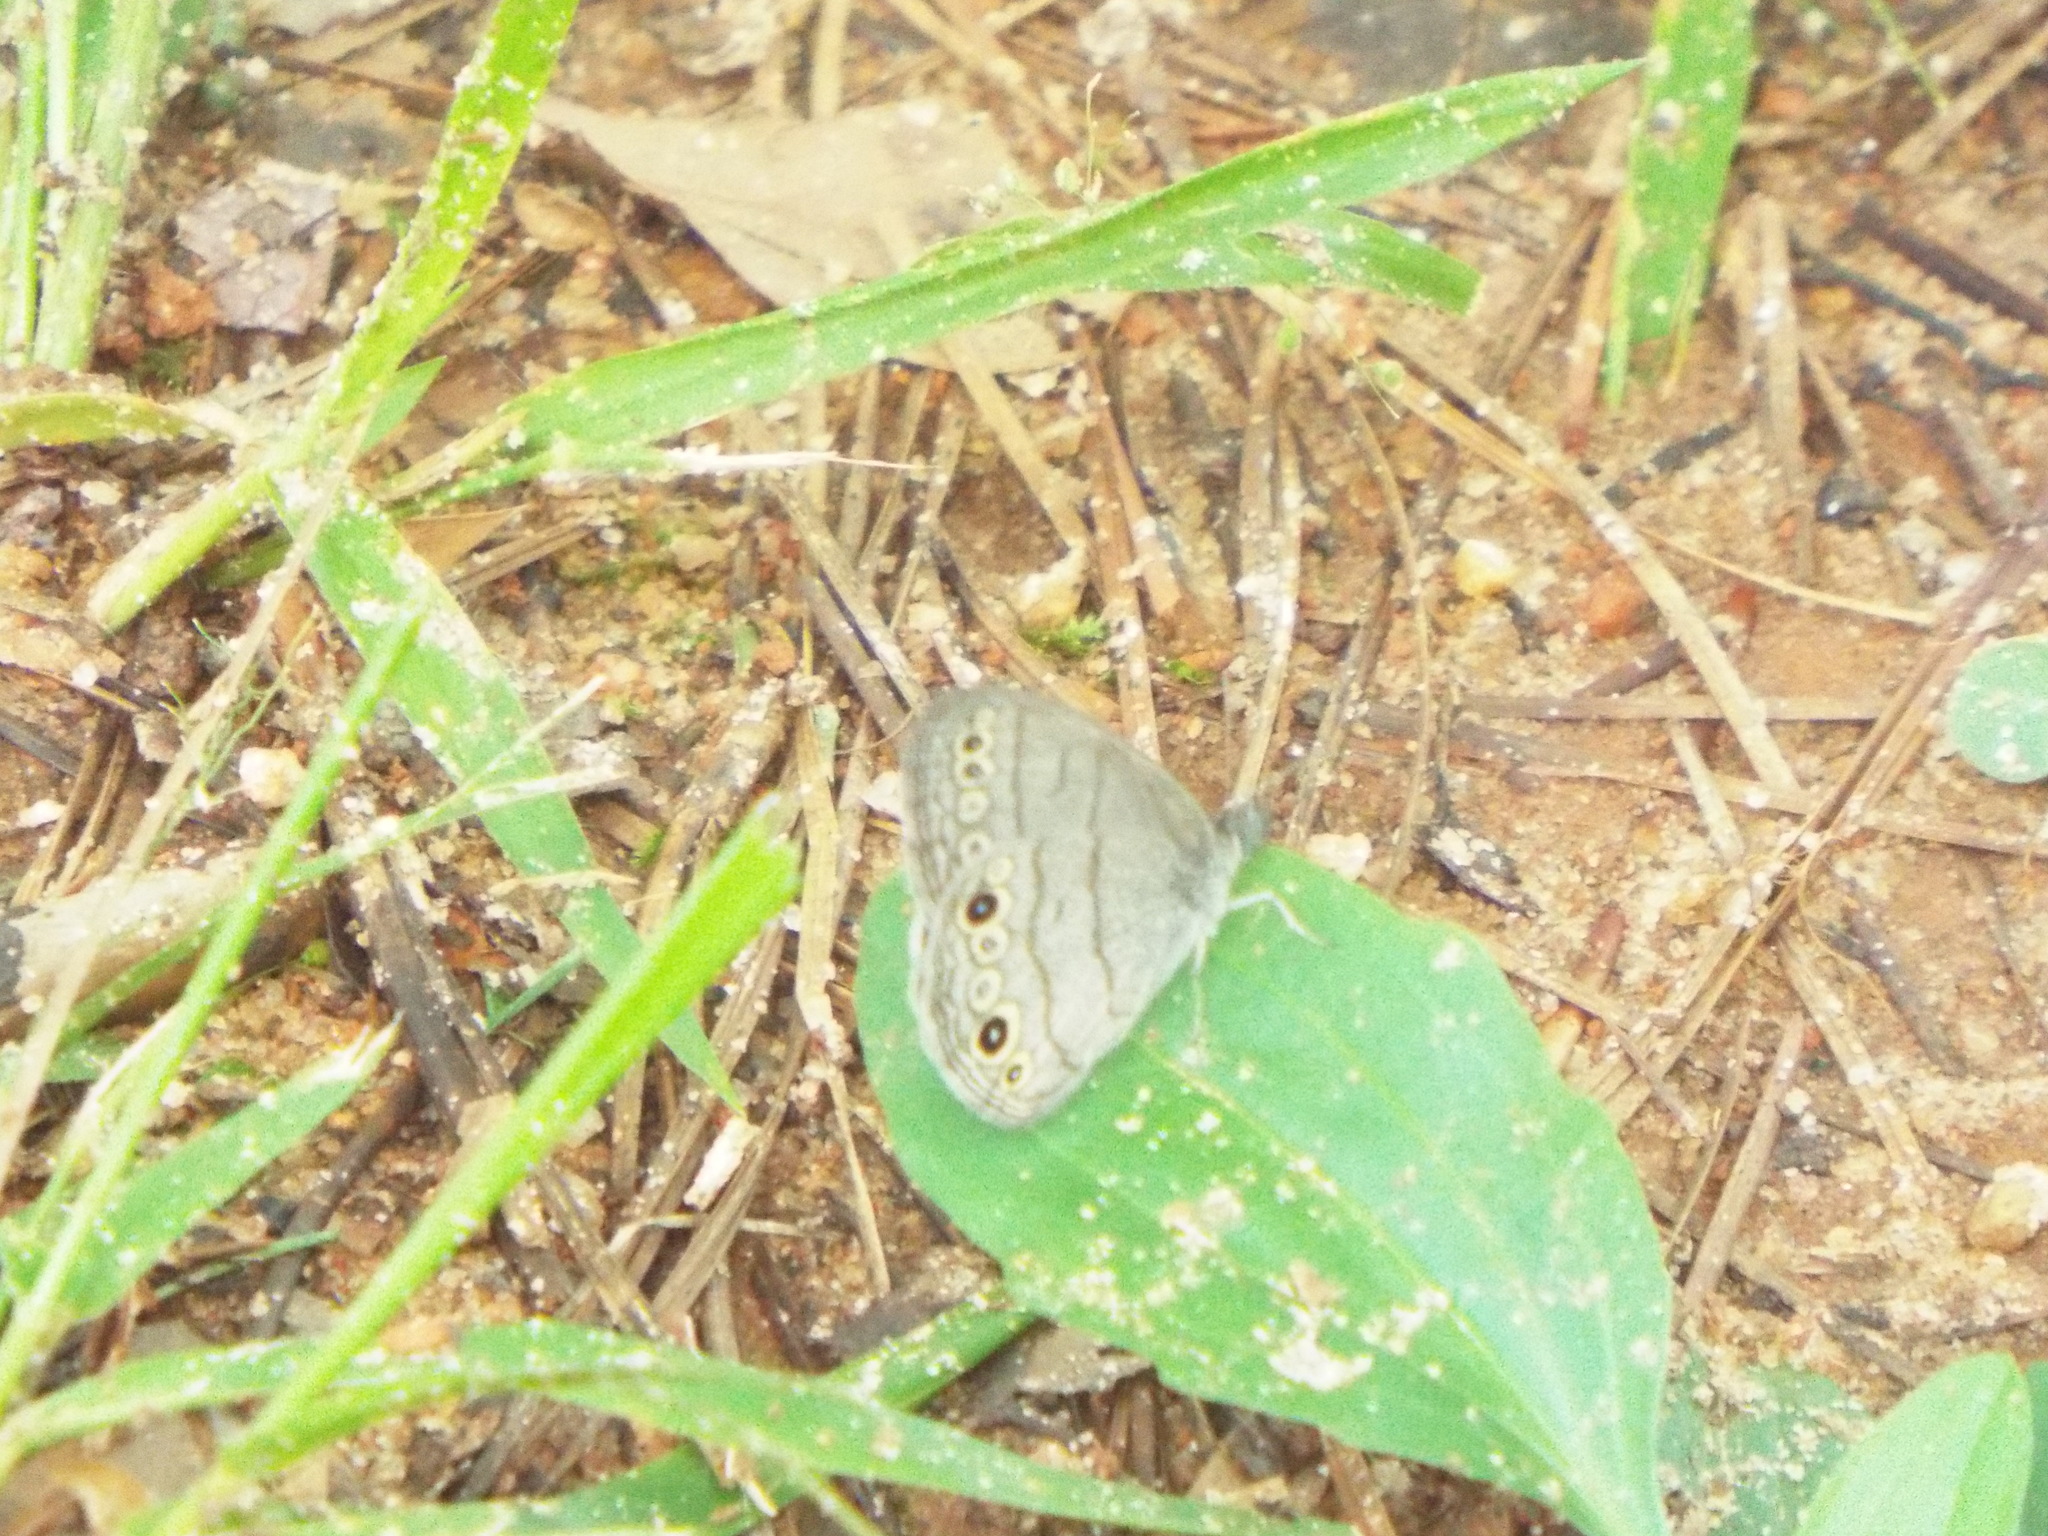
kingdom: Animalia
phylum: Arthropoda
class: Insecta
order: Lepidoptera
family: Nymphalidae
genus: Hermeuptychia
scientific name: Hermeuptychia hermes
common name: Hermes satyr
